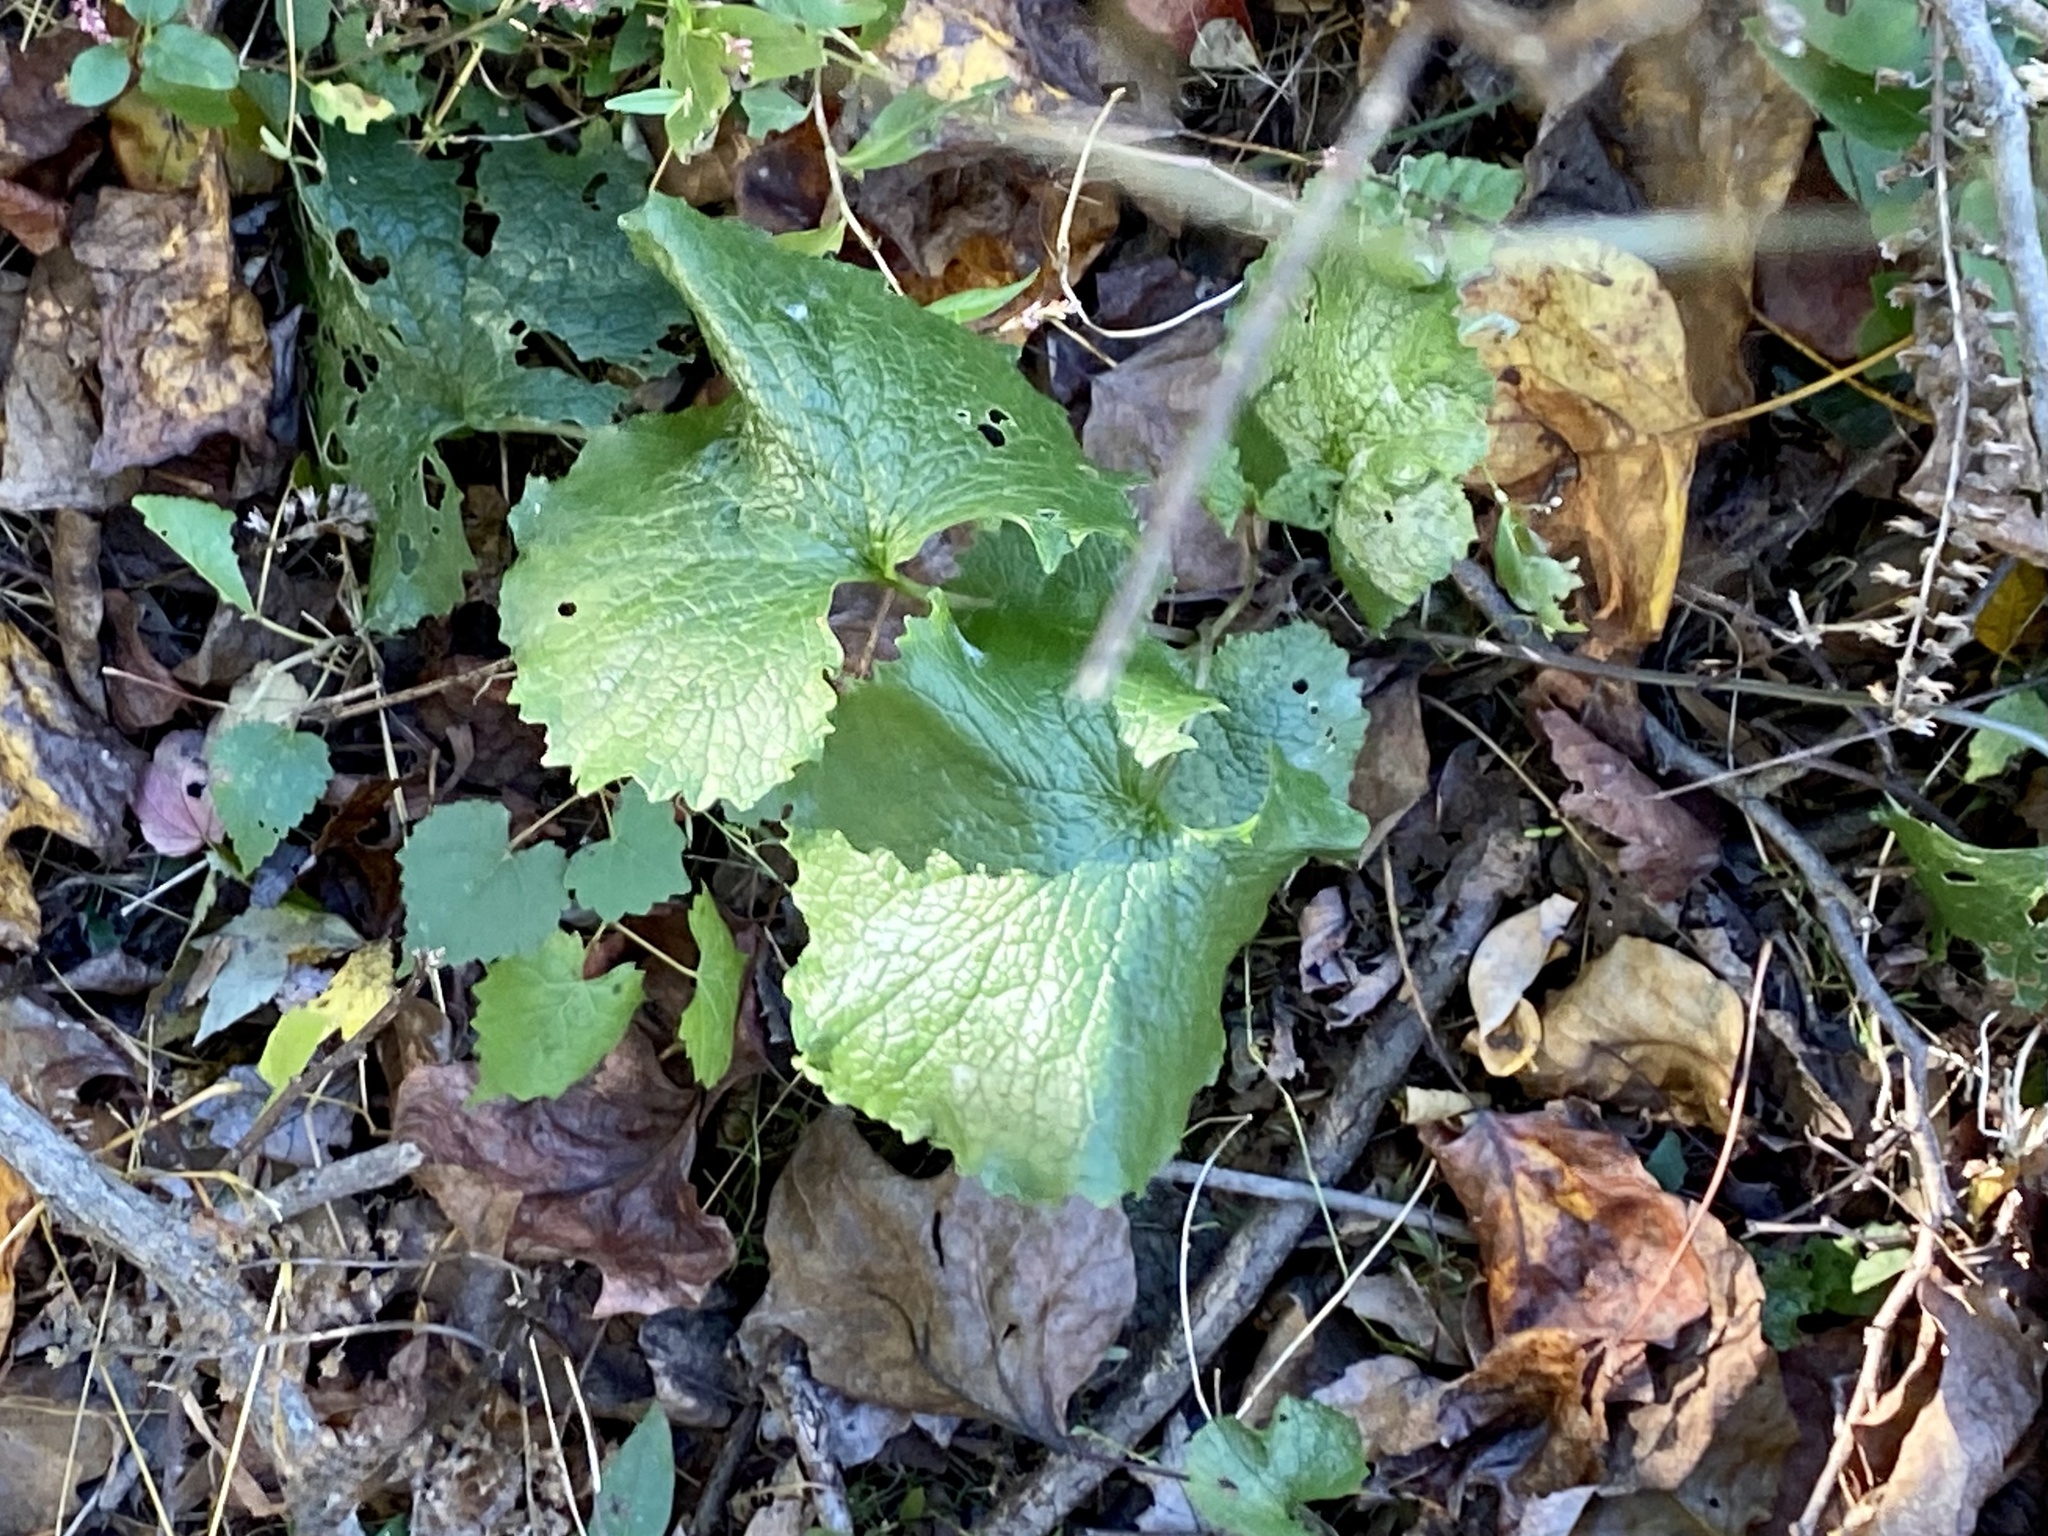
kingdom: Plantae
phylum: Tracheophyta
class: Magnoliopsida
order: Brassicales
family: Brassicaceae
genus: Alliaria
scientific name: Alliaria petiolata
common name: Garlic mustard
